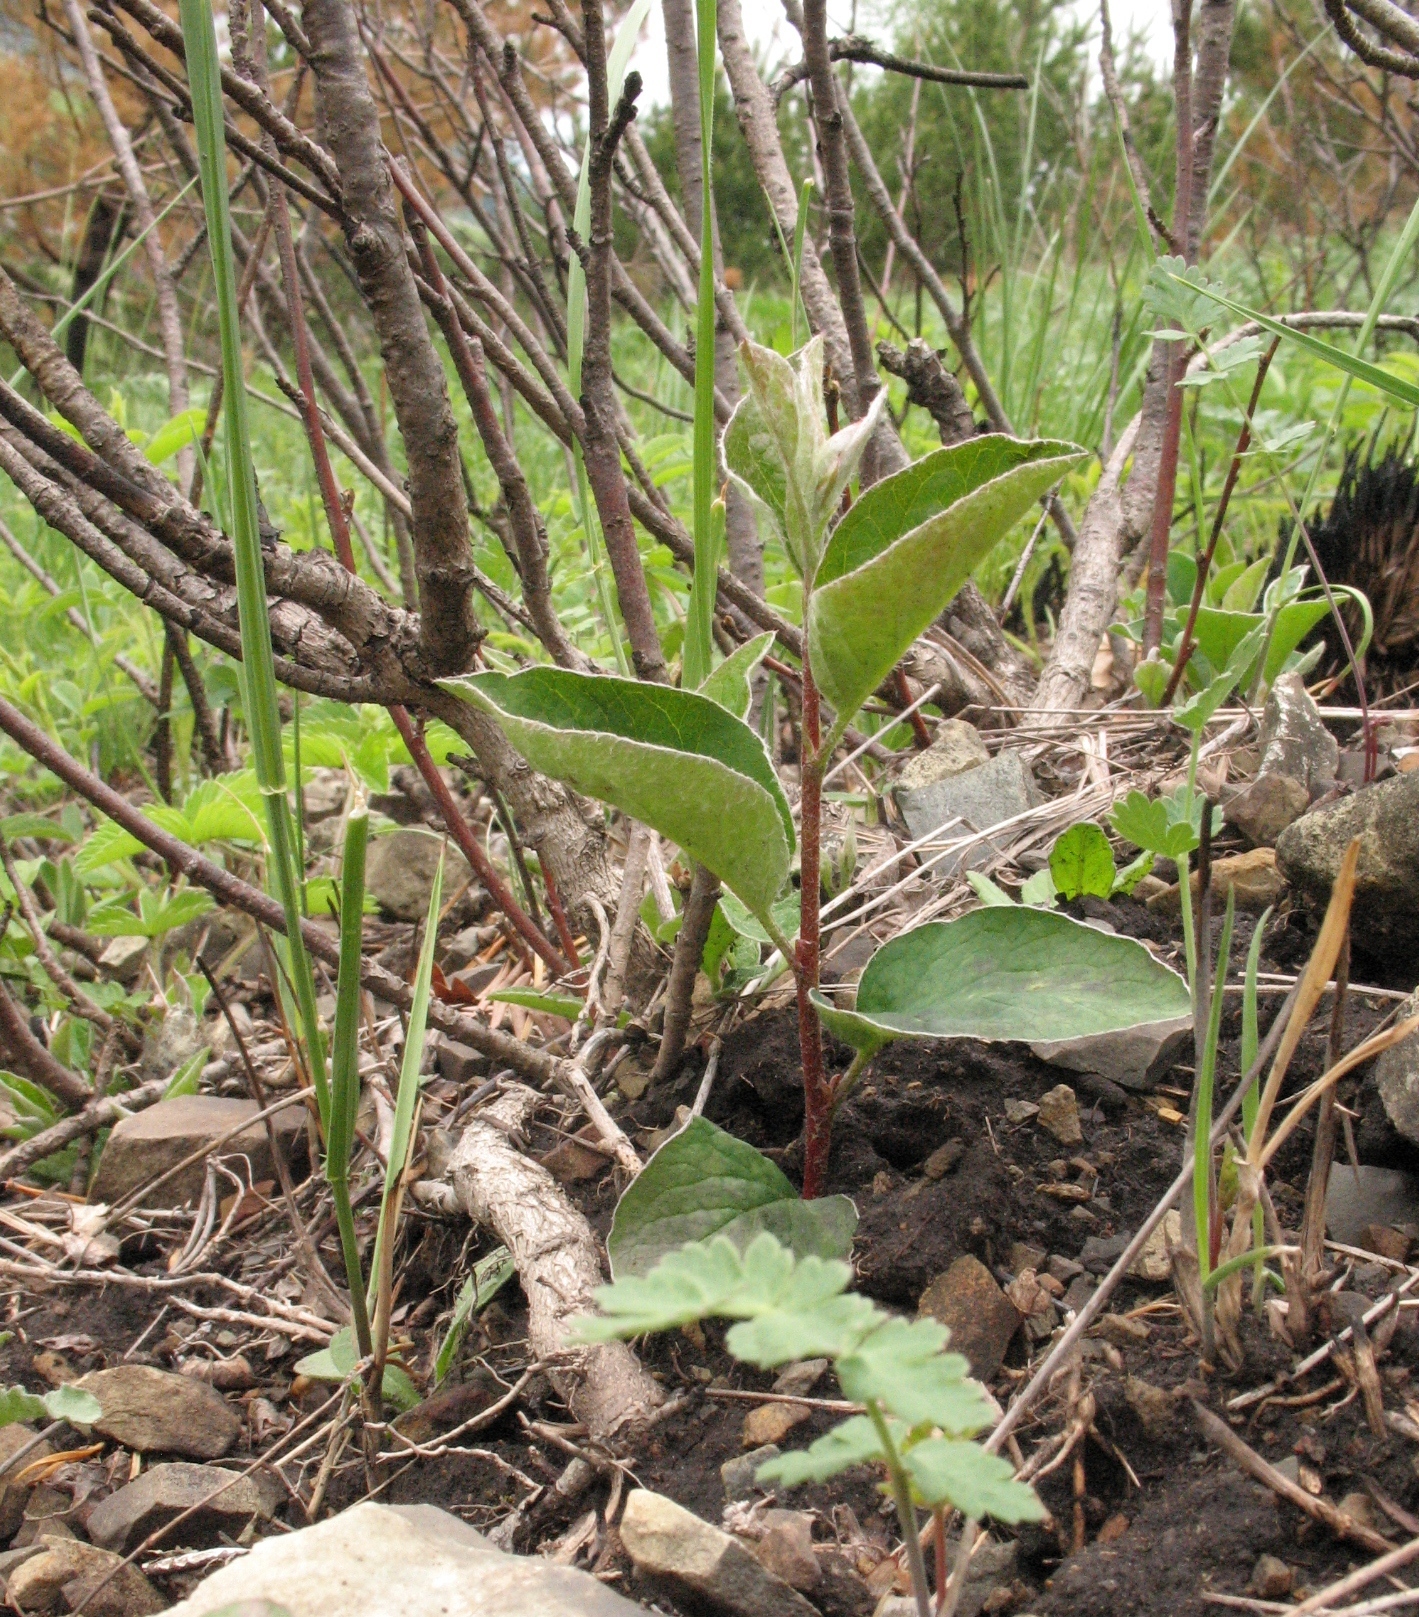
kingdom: Plantae
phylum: Tracheophyta
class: Magnoliopsida
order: Rosales
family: Rosaceae
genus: Cotoneaster
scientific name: Cotoneaster melanocarpus
